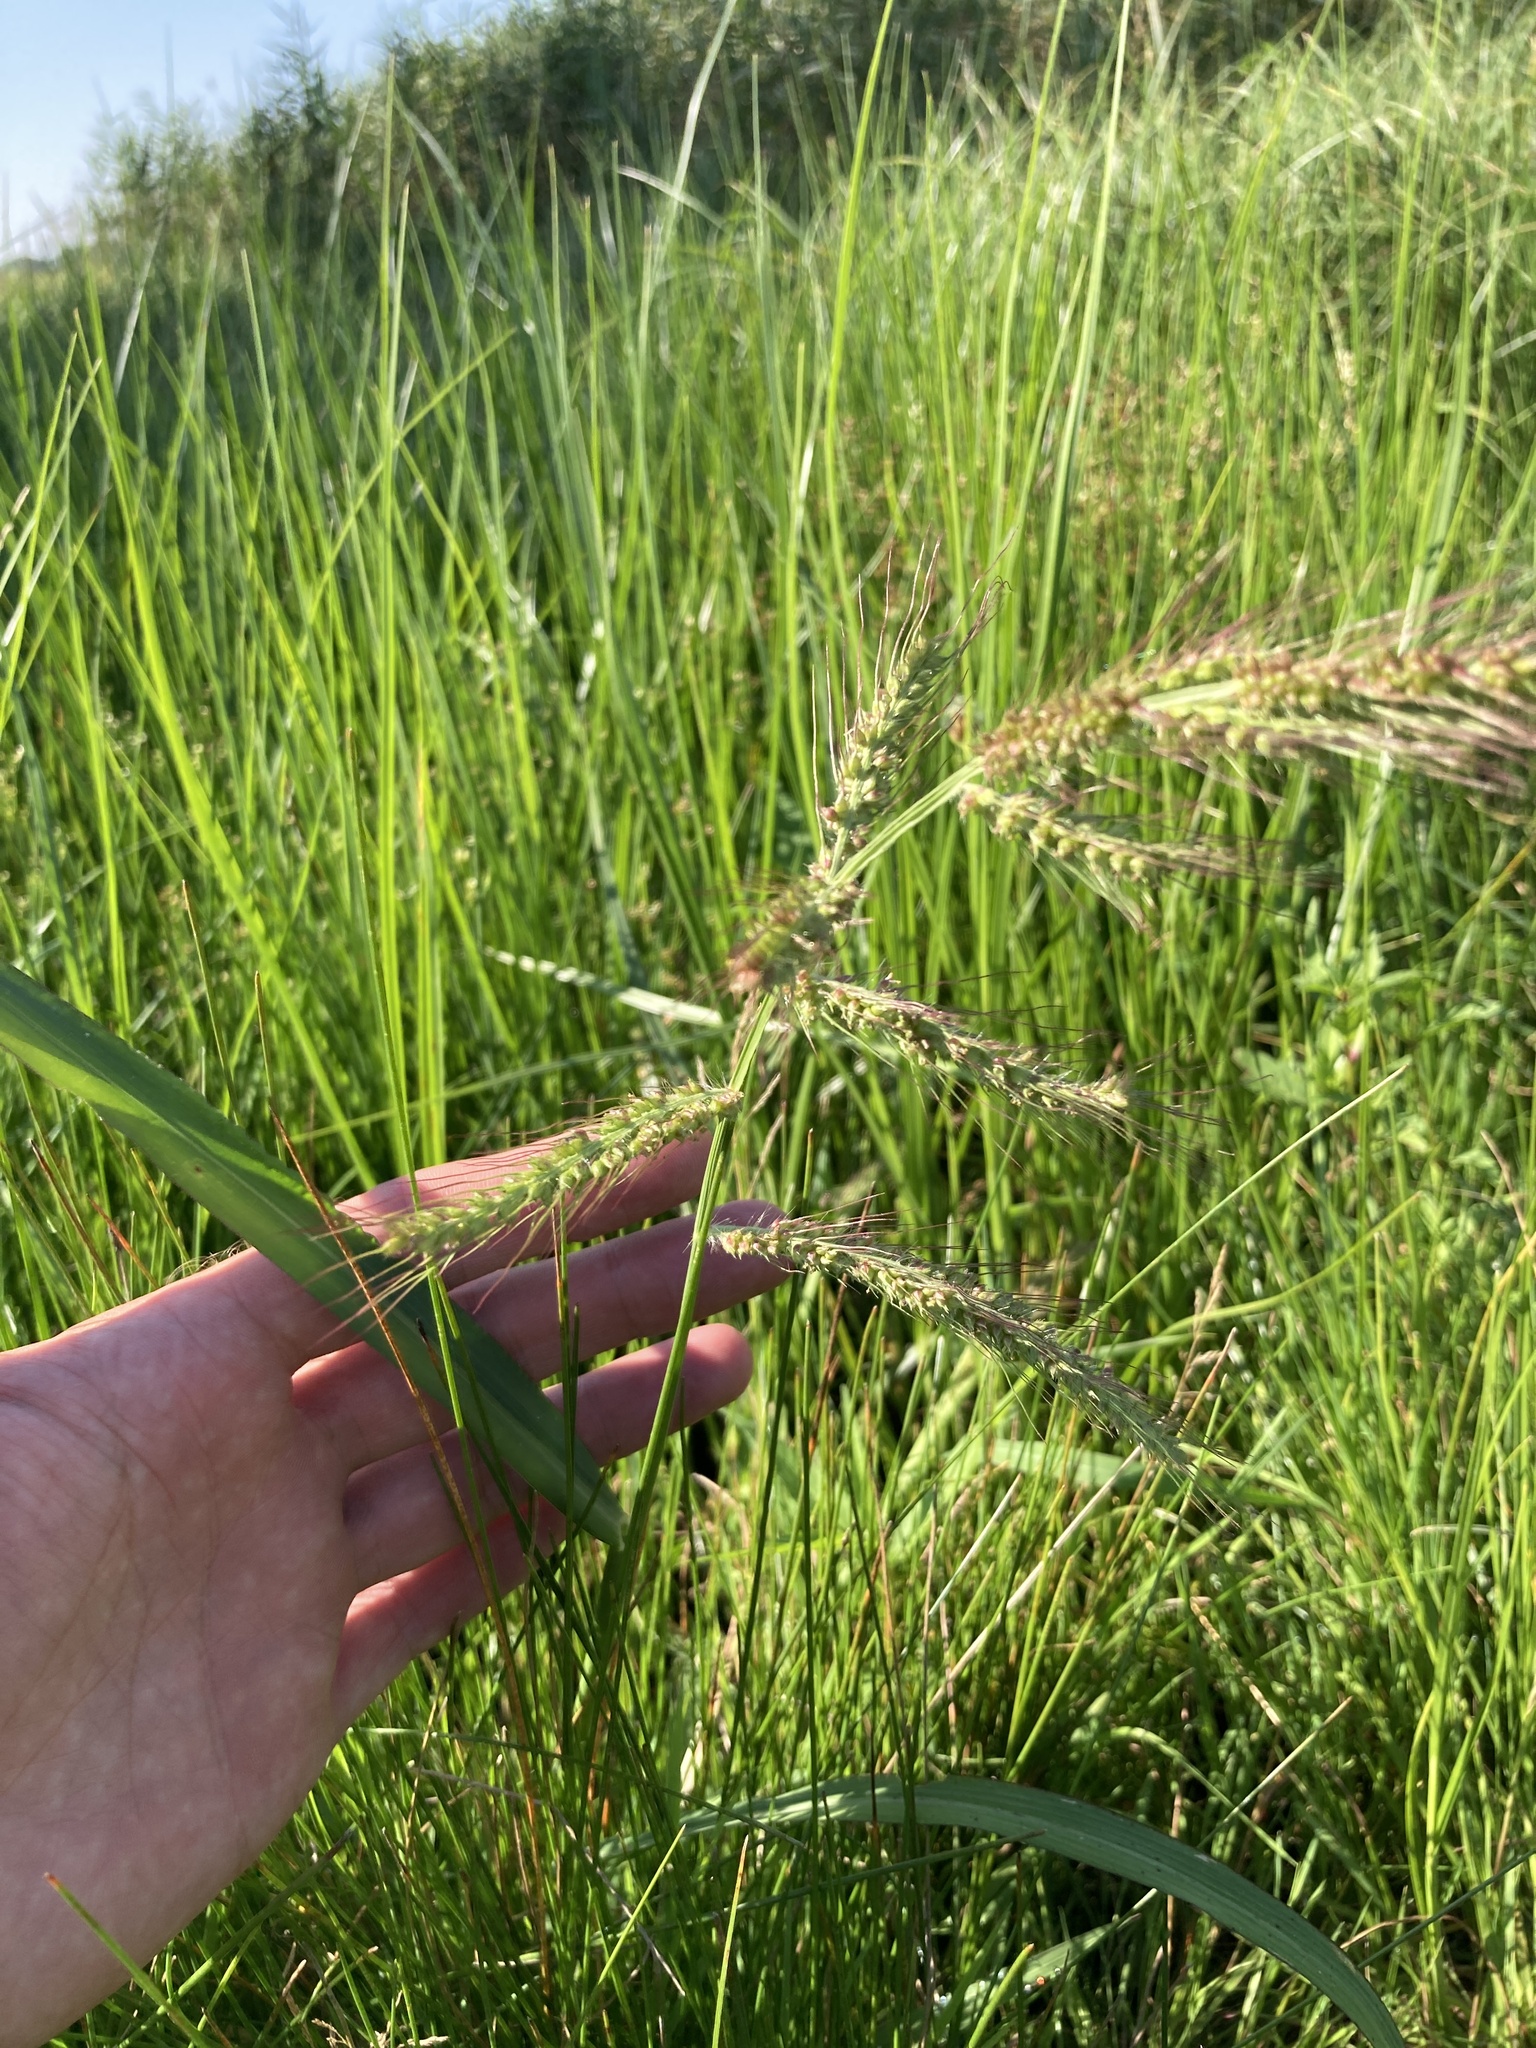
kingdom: Plantae
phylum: Tracheophyta
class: Liliopsida
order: Poales
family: Poaceae
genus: Echinochloa
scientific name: Echinochloa crus-galli
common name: Cockspur
